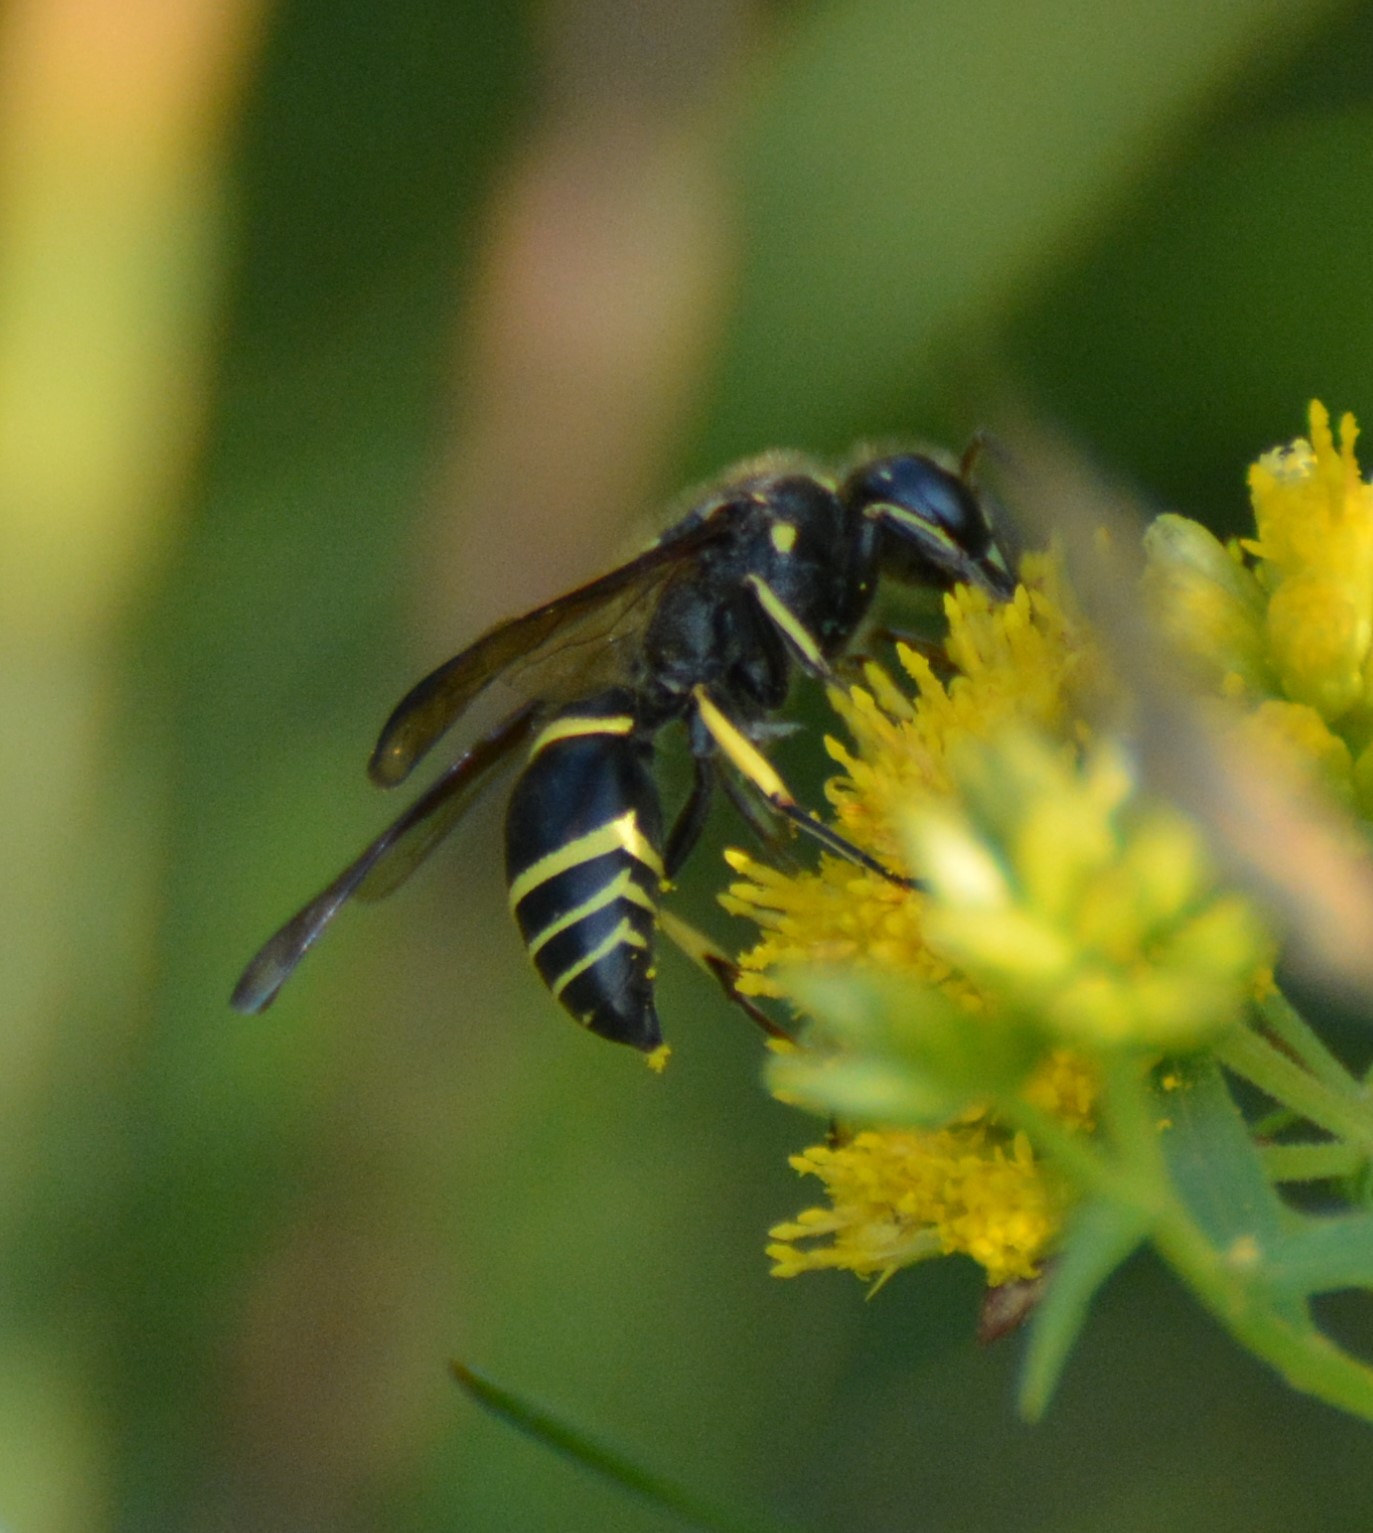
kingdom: Animalia
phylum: Arthropoda
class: Insecta
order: Hymenoptera
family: Vespidae
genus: Ancistrocerus
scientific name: Ancistrocerus
